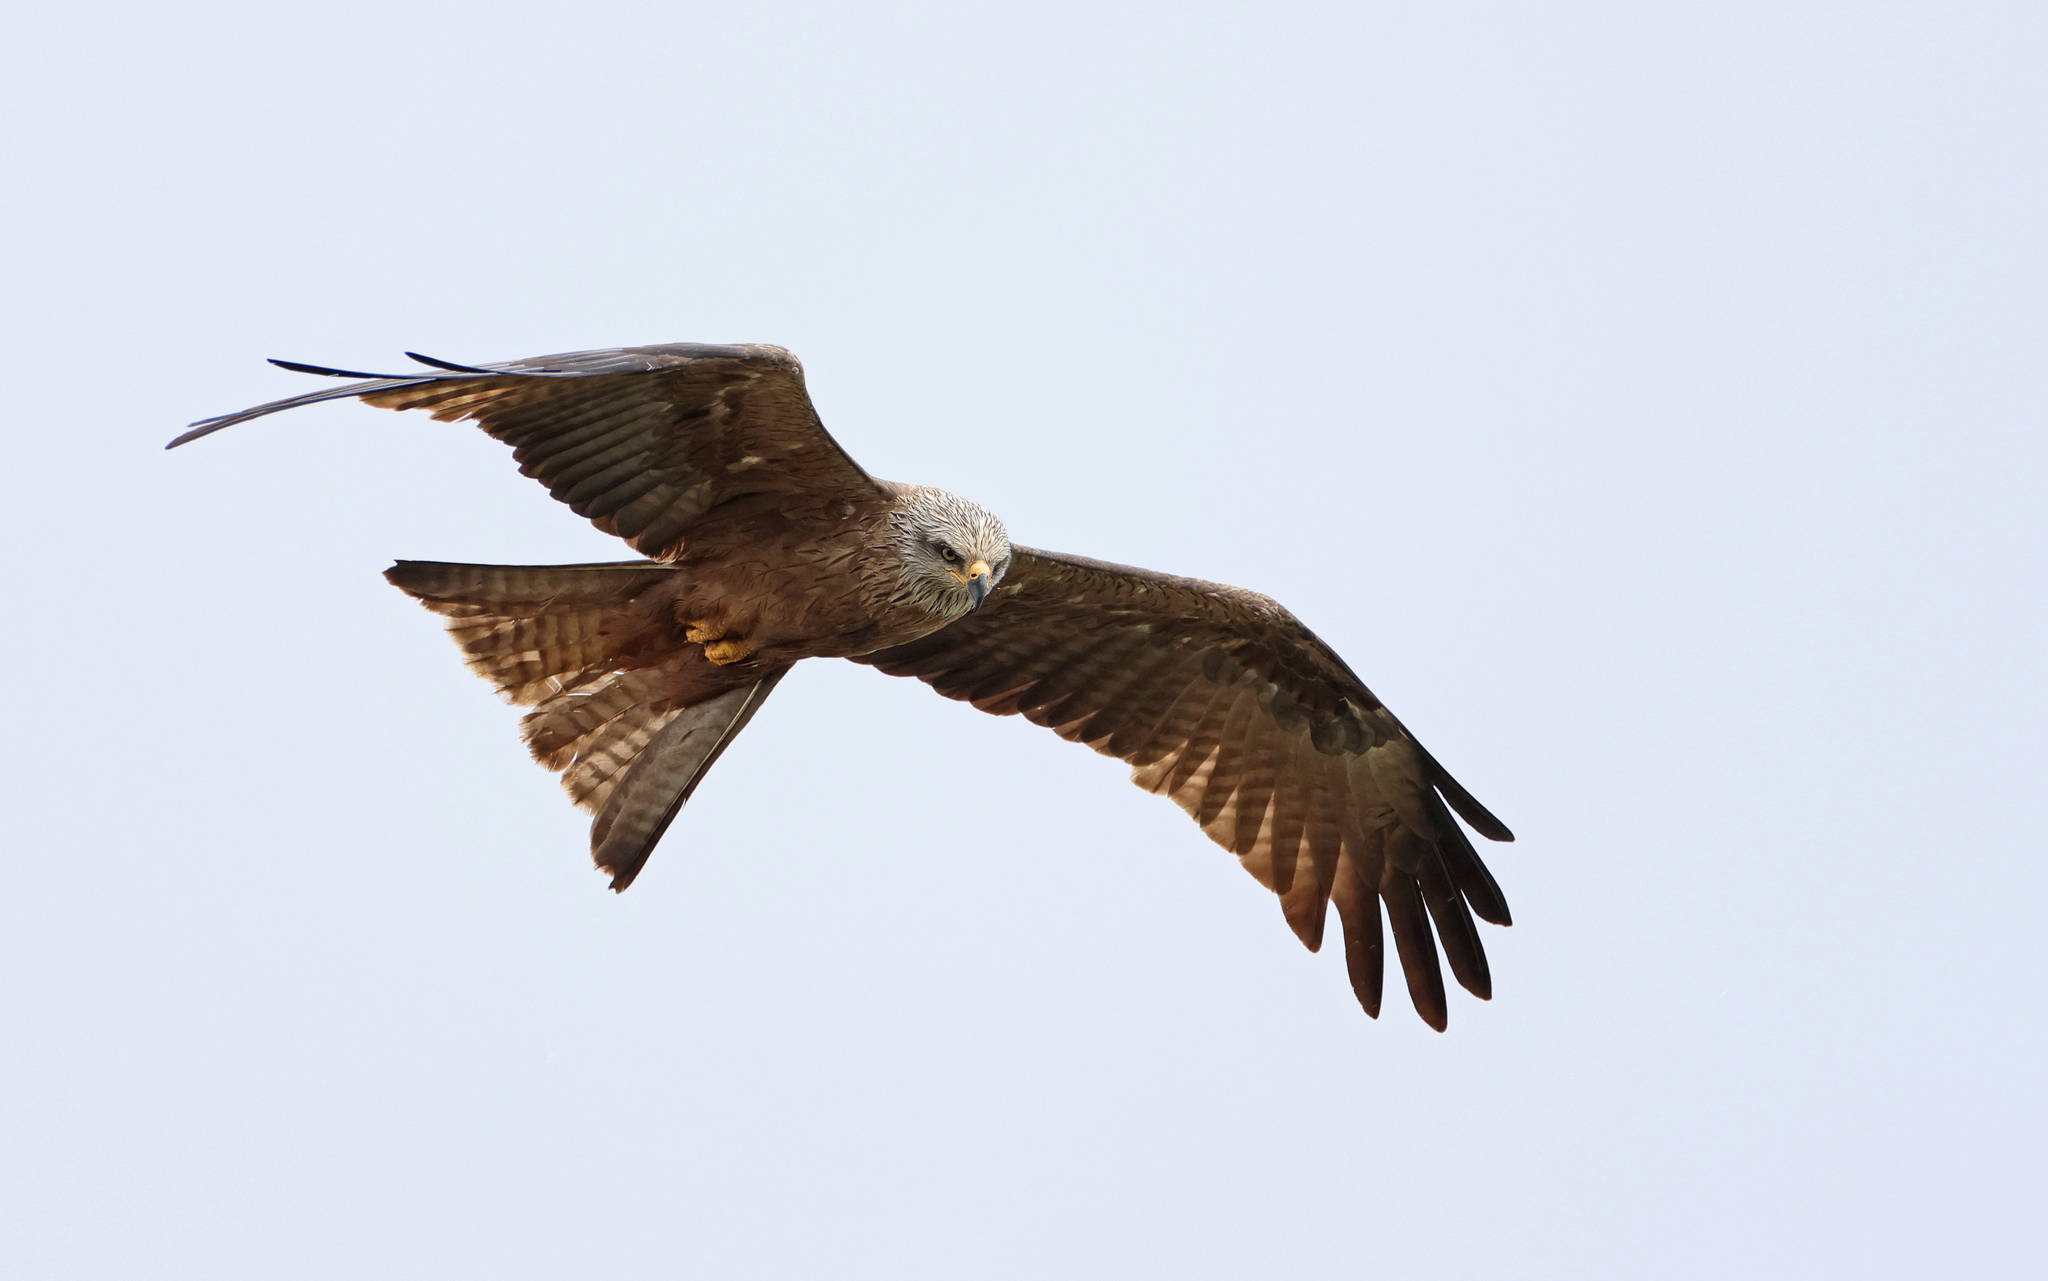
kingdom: Animalia
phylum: Chordata
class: Aves
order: Accipitriformes
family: Accipitridae
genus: Milvus
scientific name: Milvus migrans
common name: Black kite
